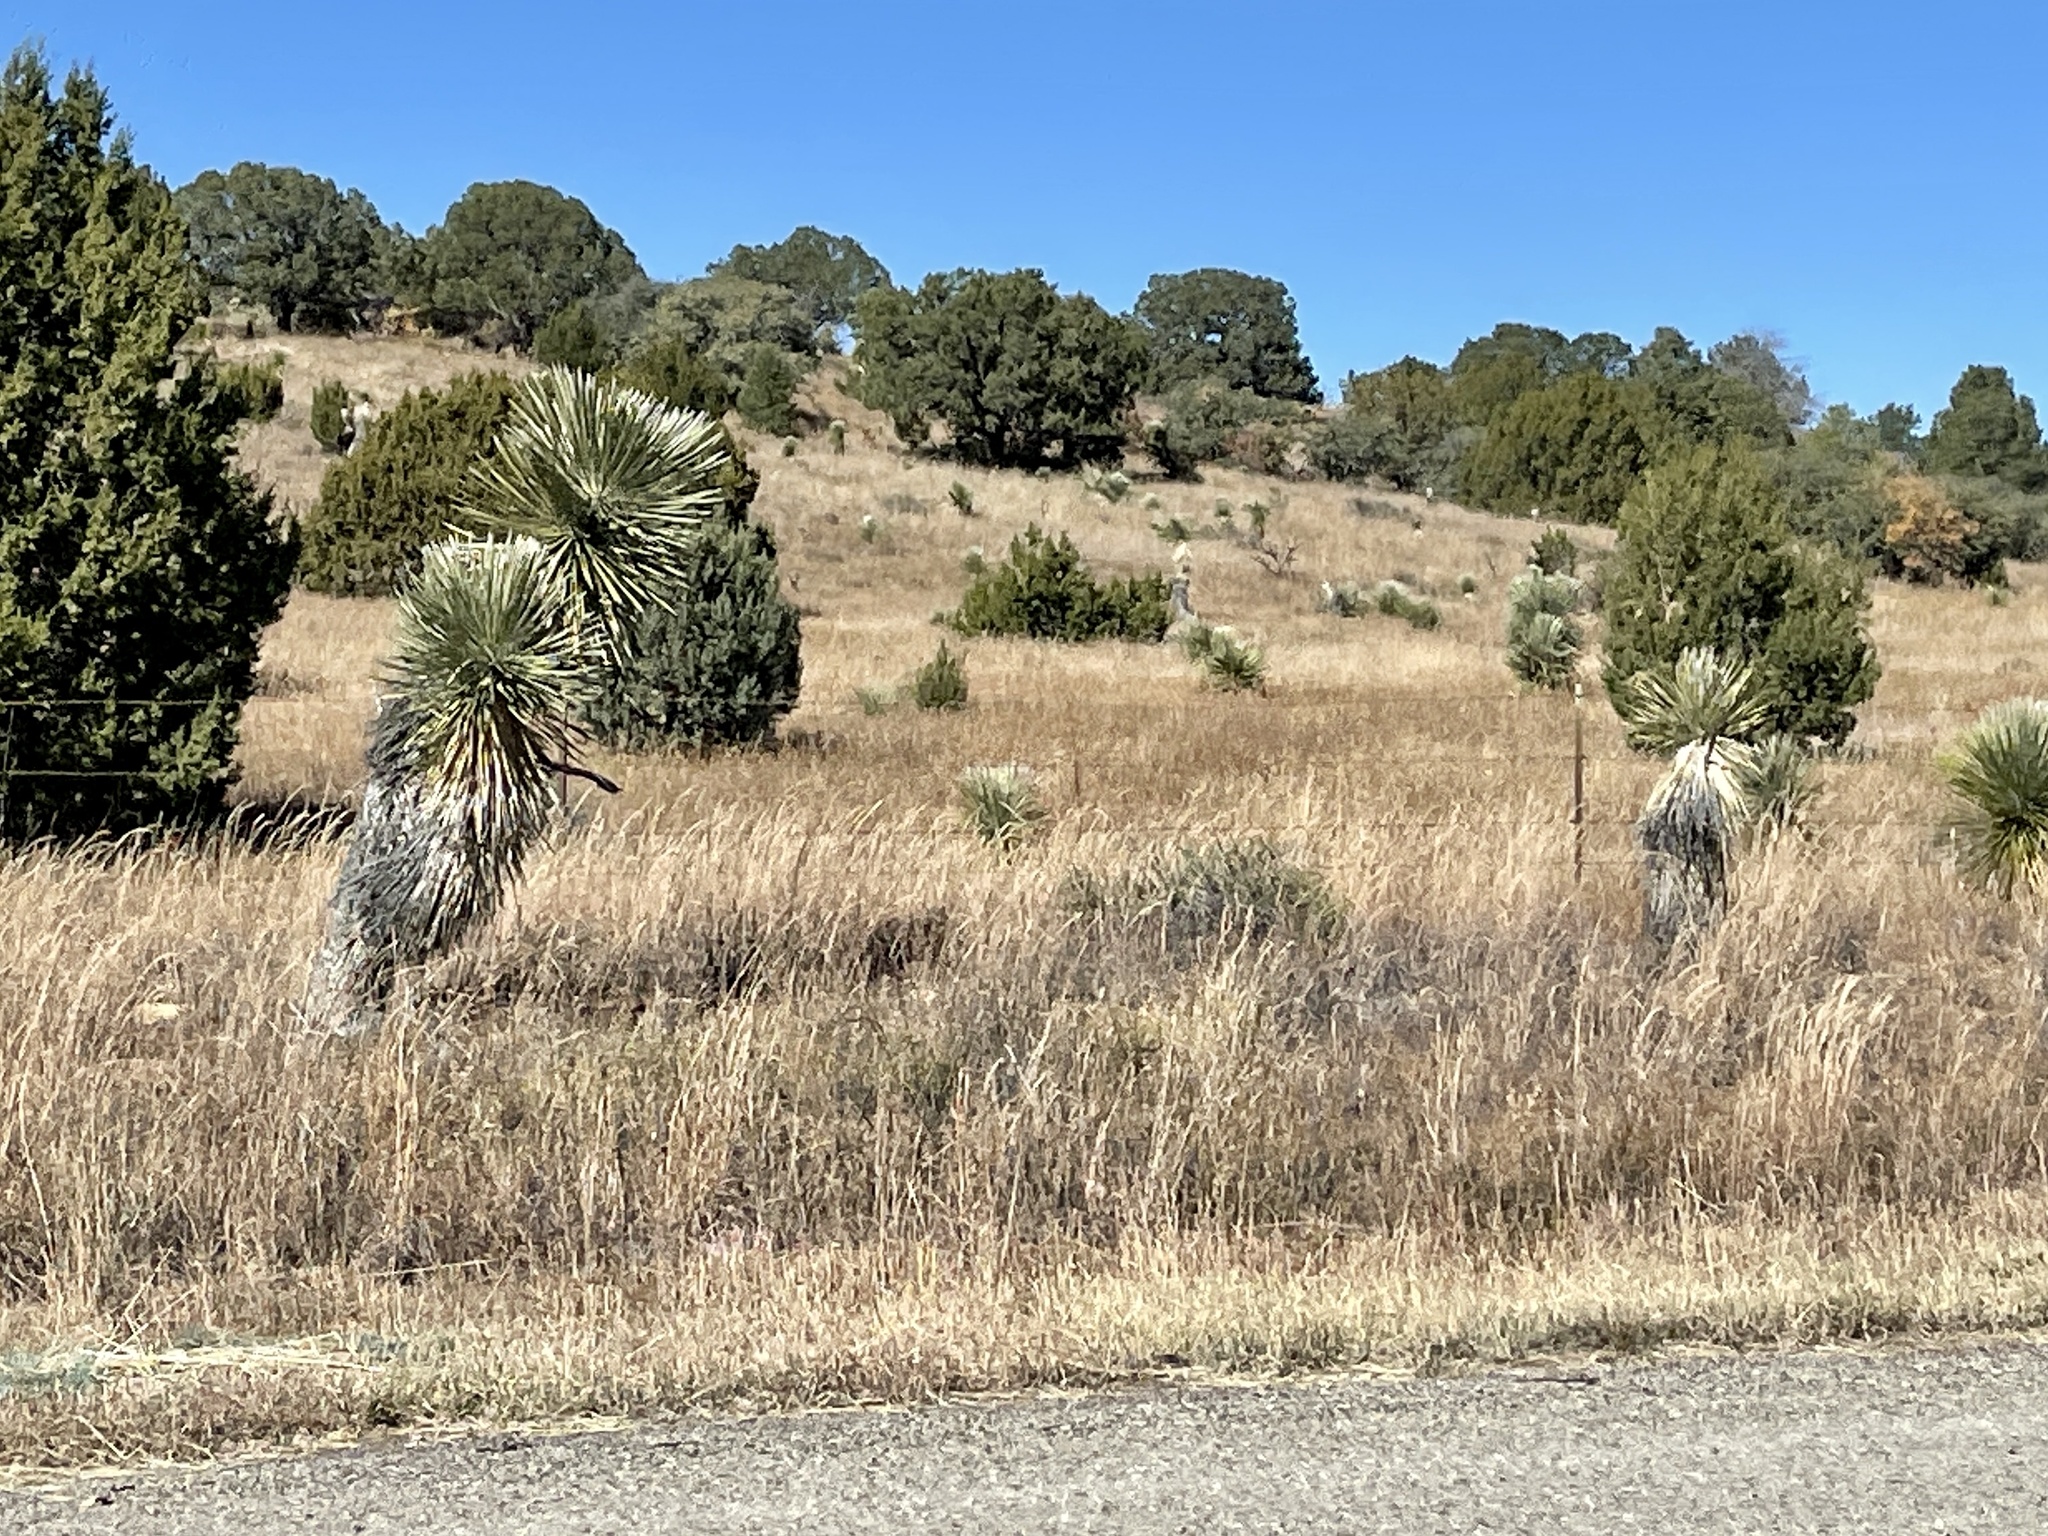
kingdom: Plantae
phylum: Tracheophyta
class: Liliopsida
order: Asparagales
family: Asparagaceae
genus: Yucca
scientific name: Yucca elata
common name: Palmella
